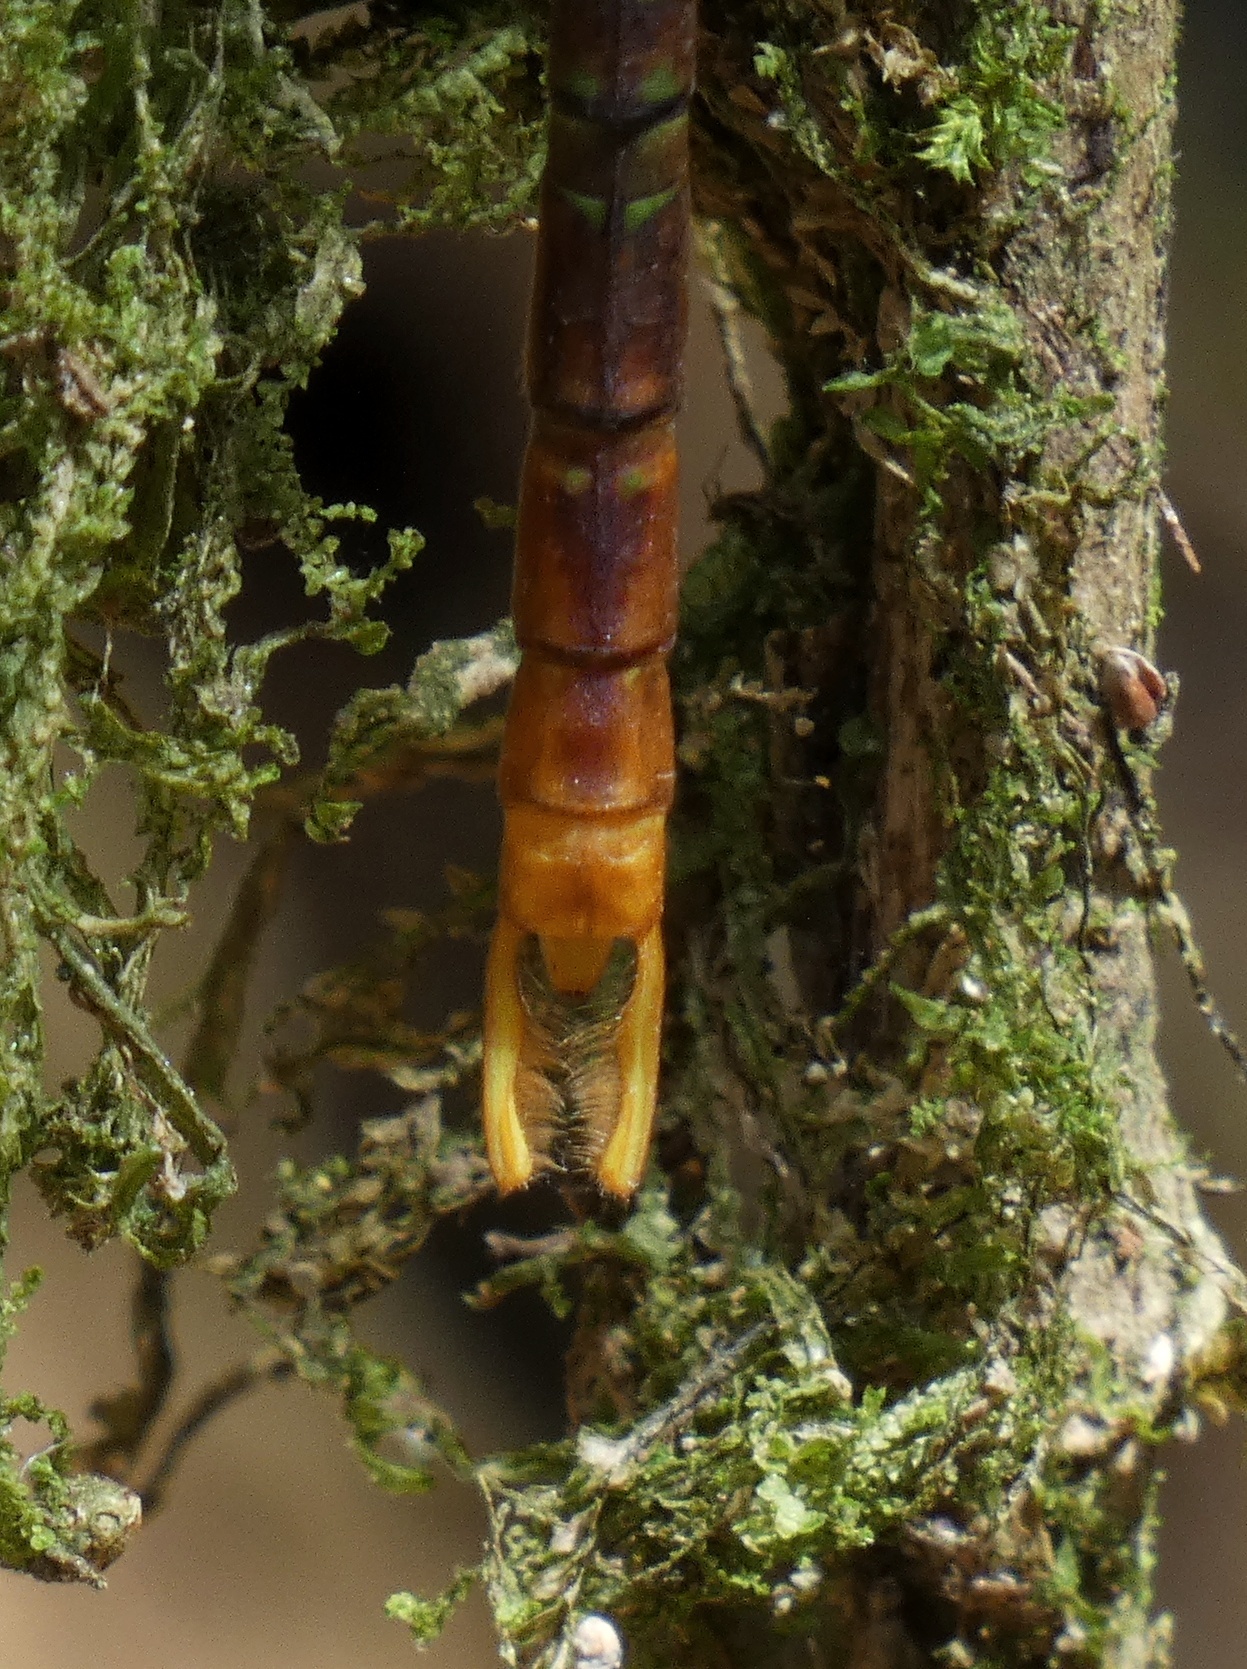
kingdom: Animalia
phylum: Arthropoda
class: Insecta
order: Odonata
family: Aeshnidae
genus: Gynacantha
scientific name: Gynacantha tibiata
